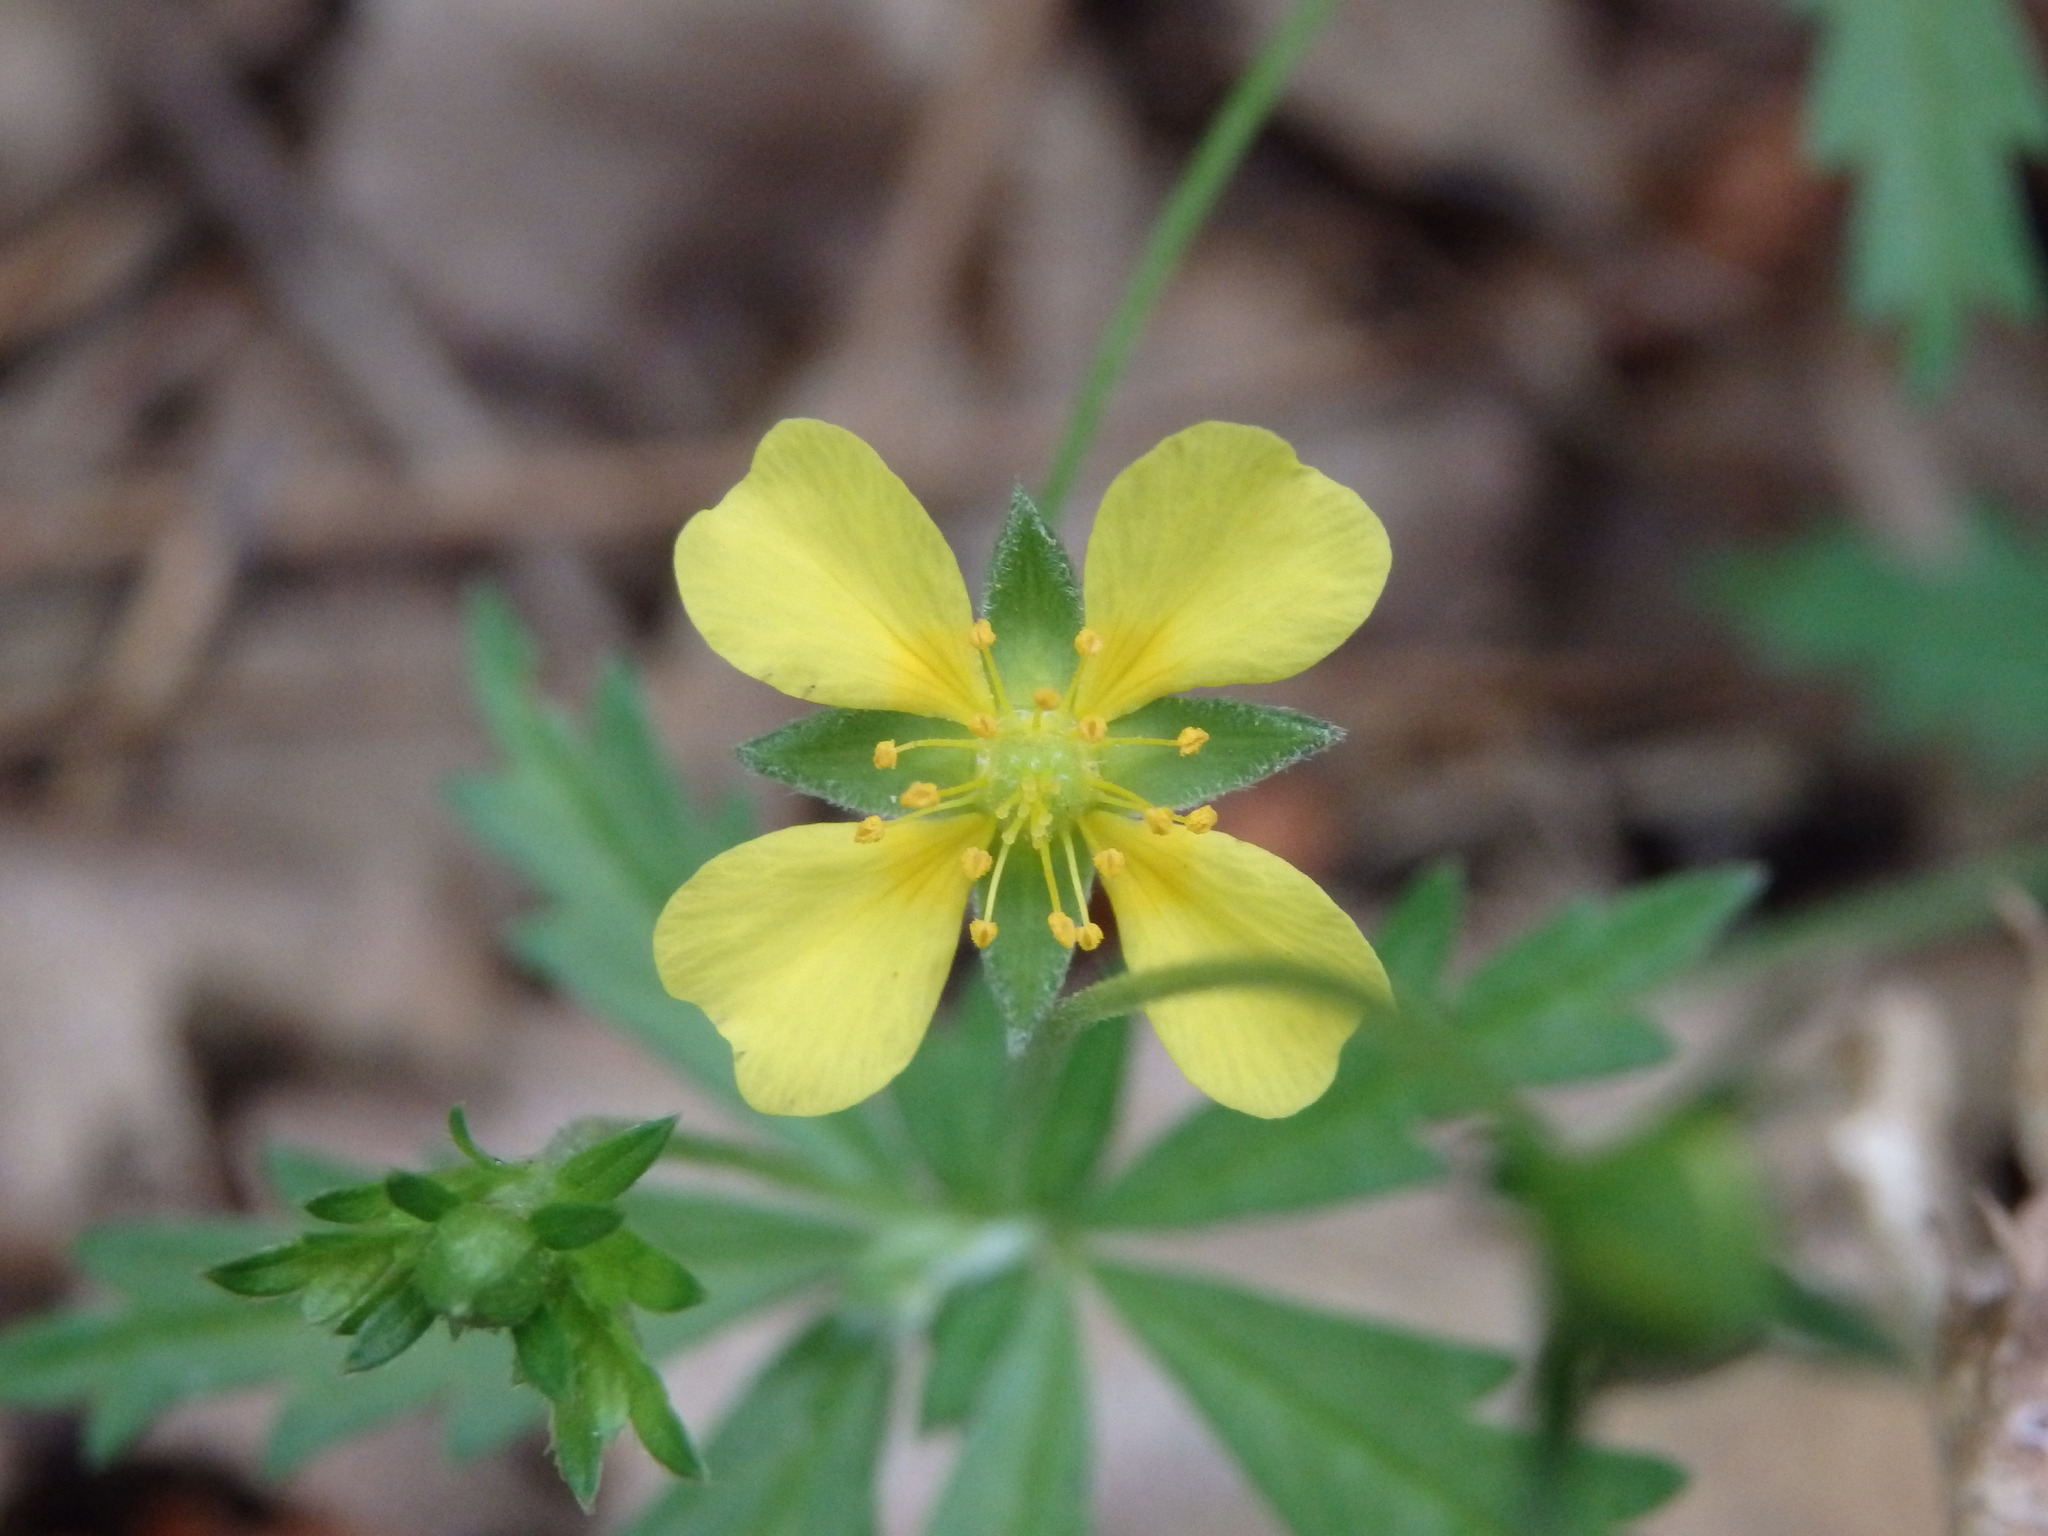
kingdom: Plantae
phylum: Tracheophyta
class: Magnoliopsida
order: Rosales
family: Rosaceae
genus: Potentilla
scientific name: Potentilla erecta
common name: Tormentil
